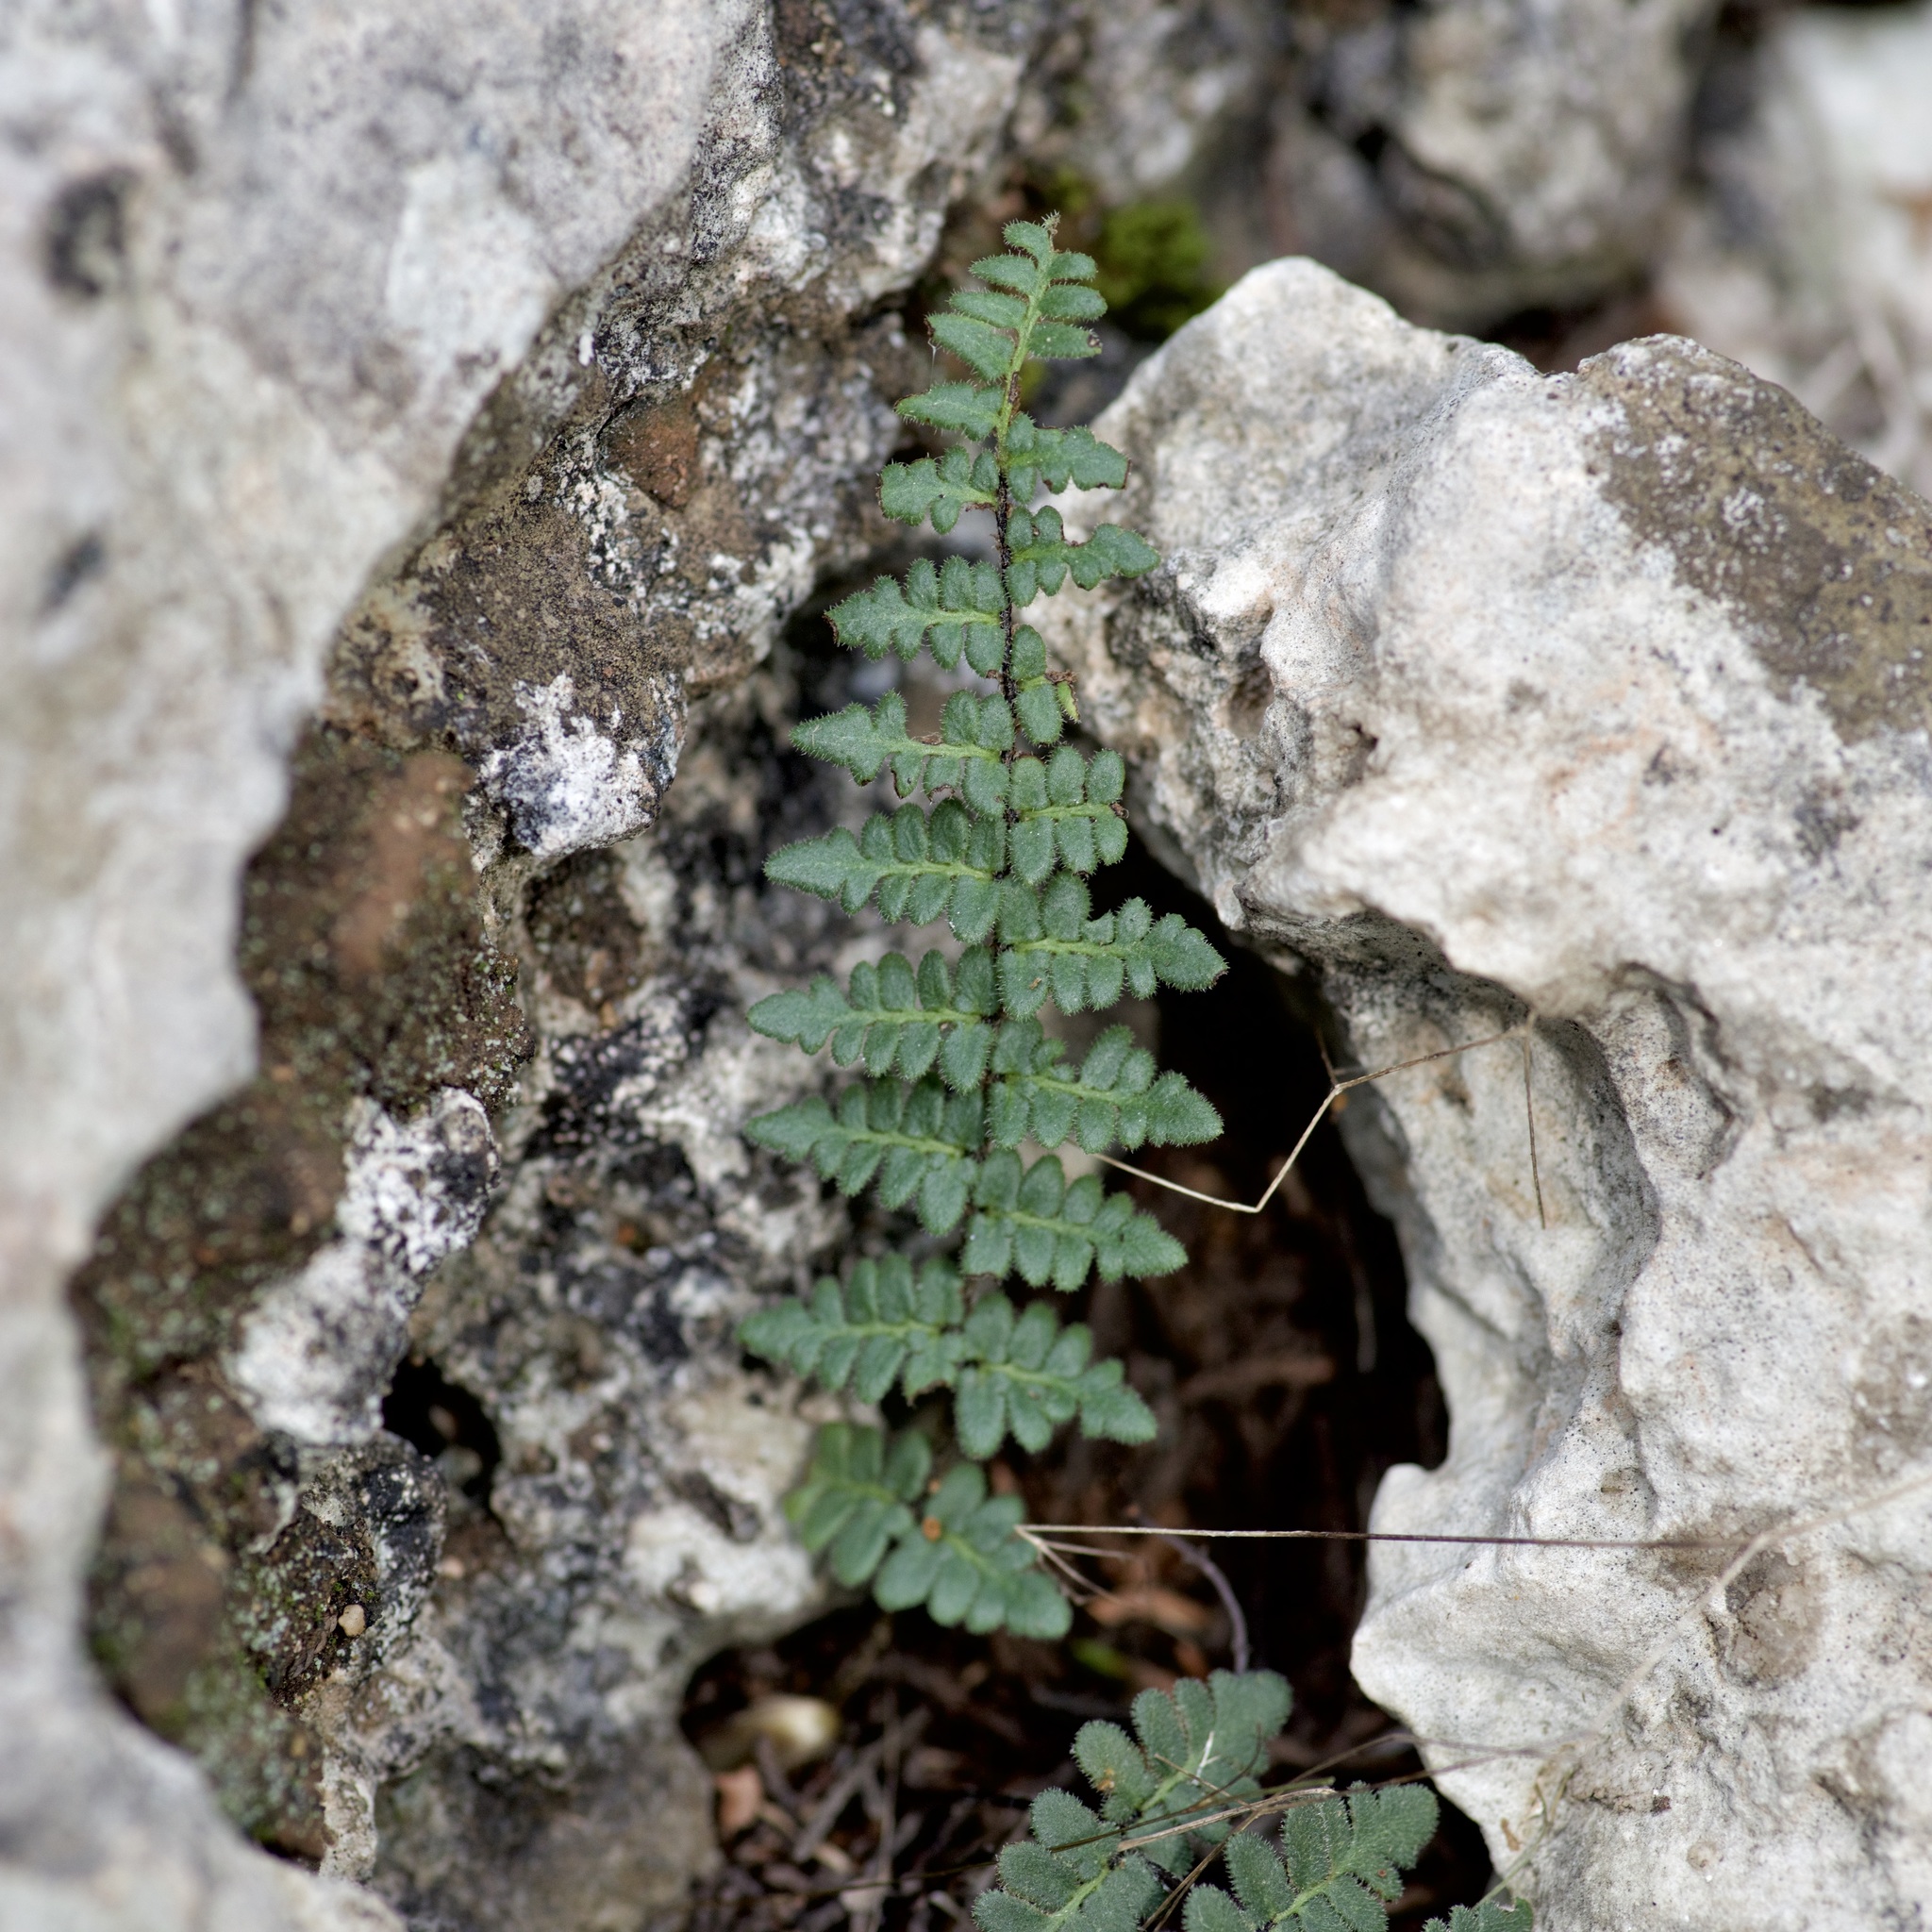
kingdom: Plantae
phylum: Tracheophyta
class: Polypodiopsida
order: Polypodiales
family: Pteridaceae
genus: Myriopteris
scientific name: Myriopteris scabra
